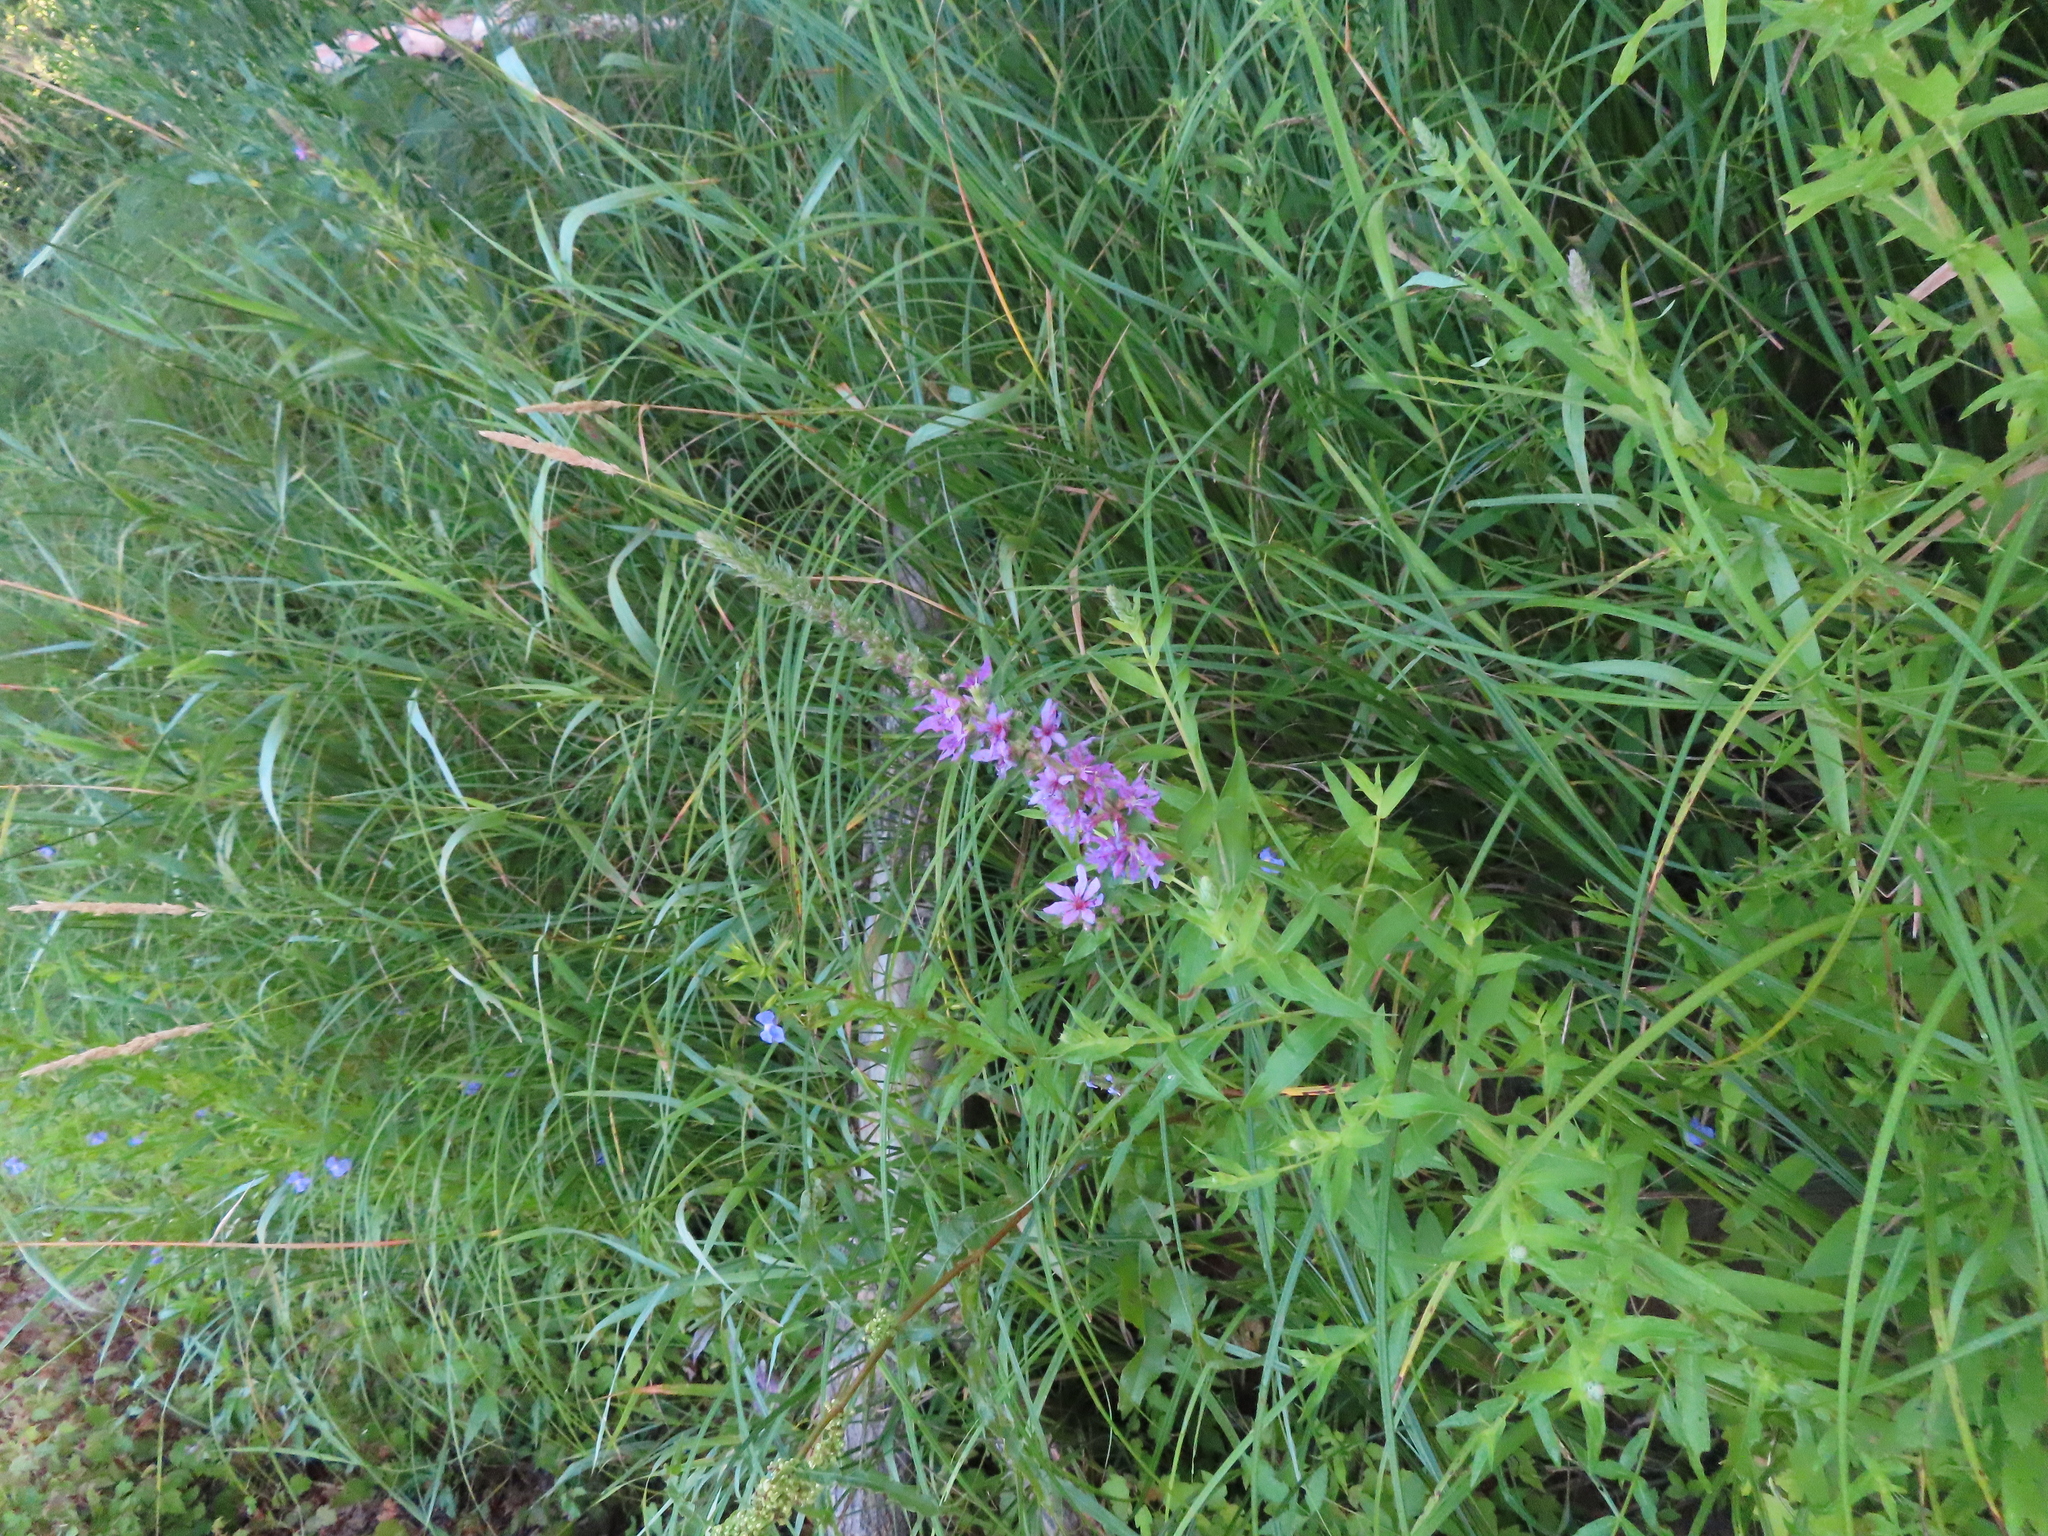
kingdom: Plantae
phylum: Tracheophyta
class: Magnoliopsida
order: Myrtales
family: Lythraceae
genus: Lythrum
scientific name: Lythrum salicaria
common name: Purple loosestrife
